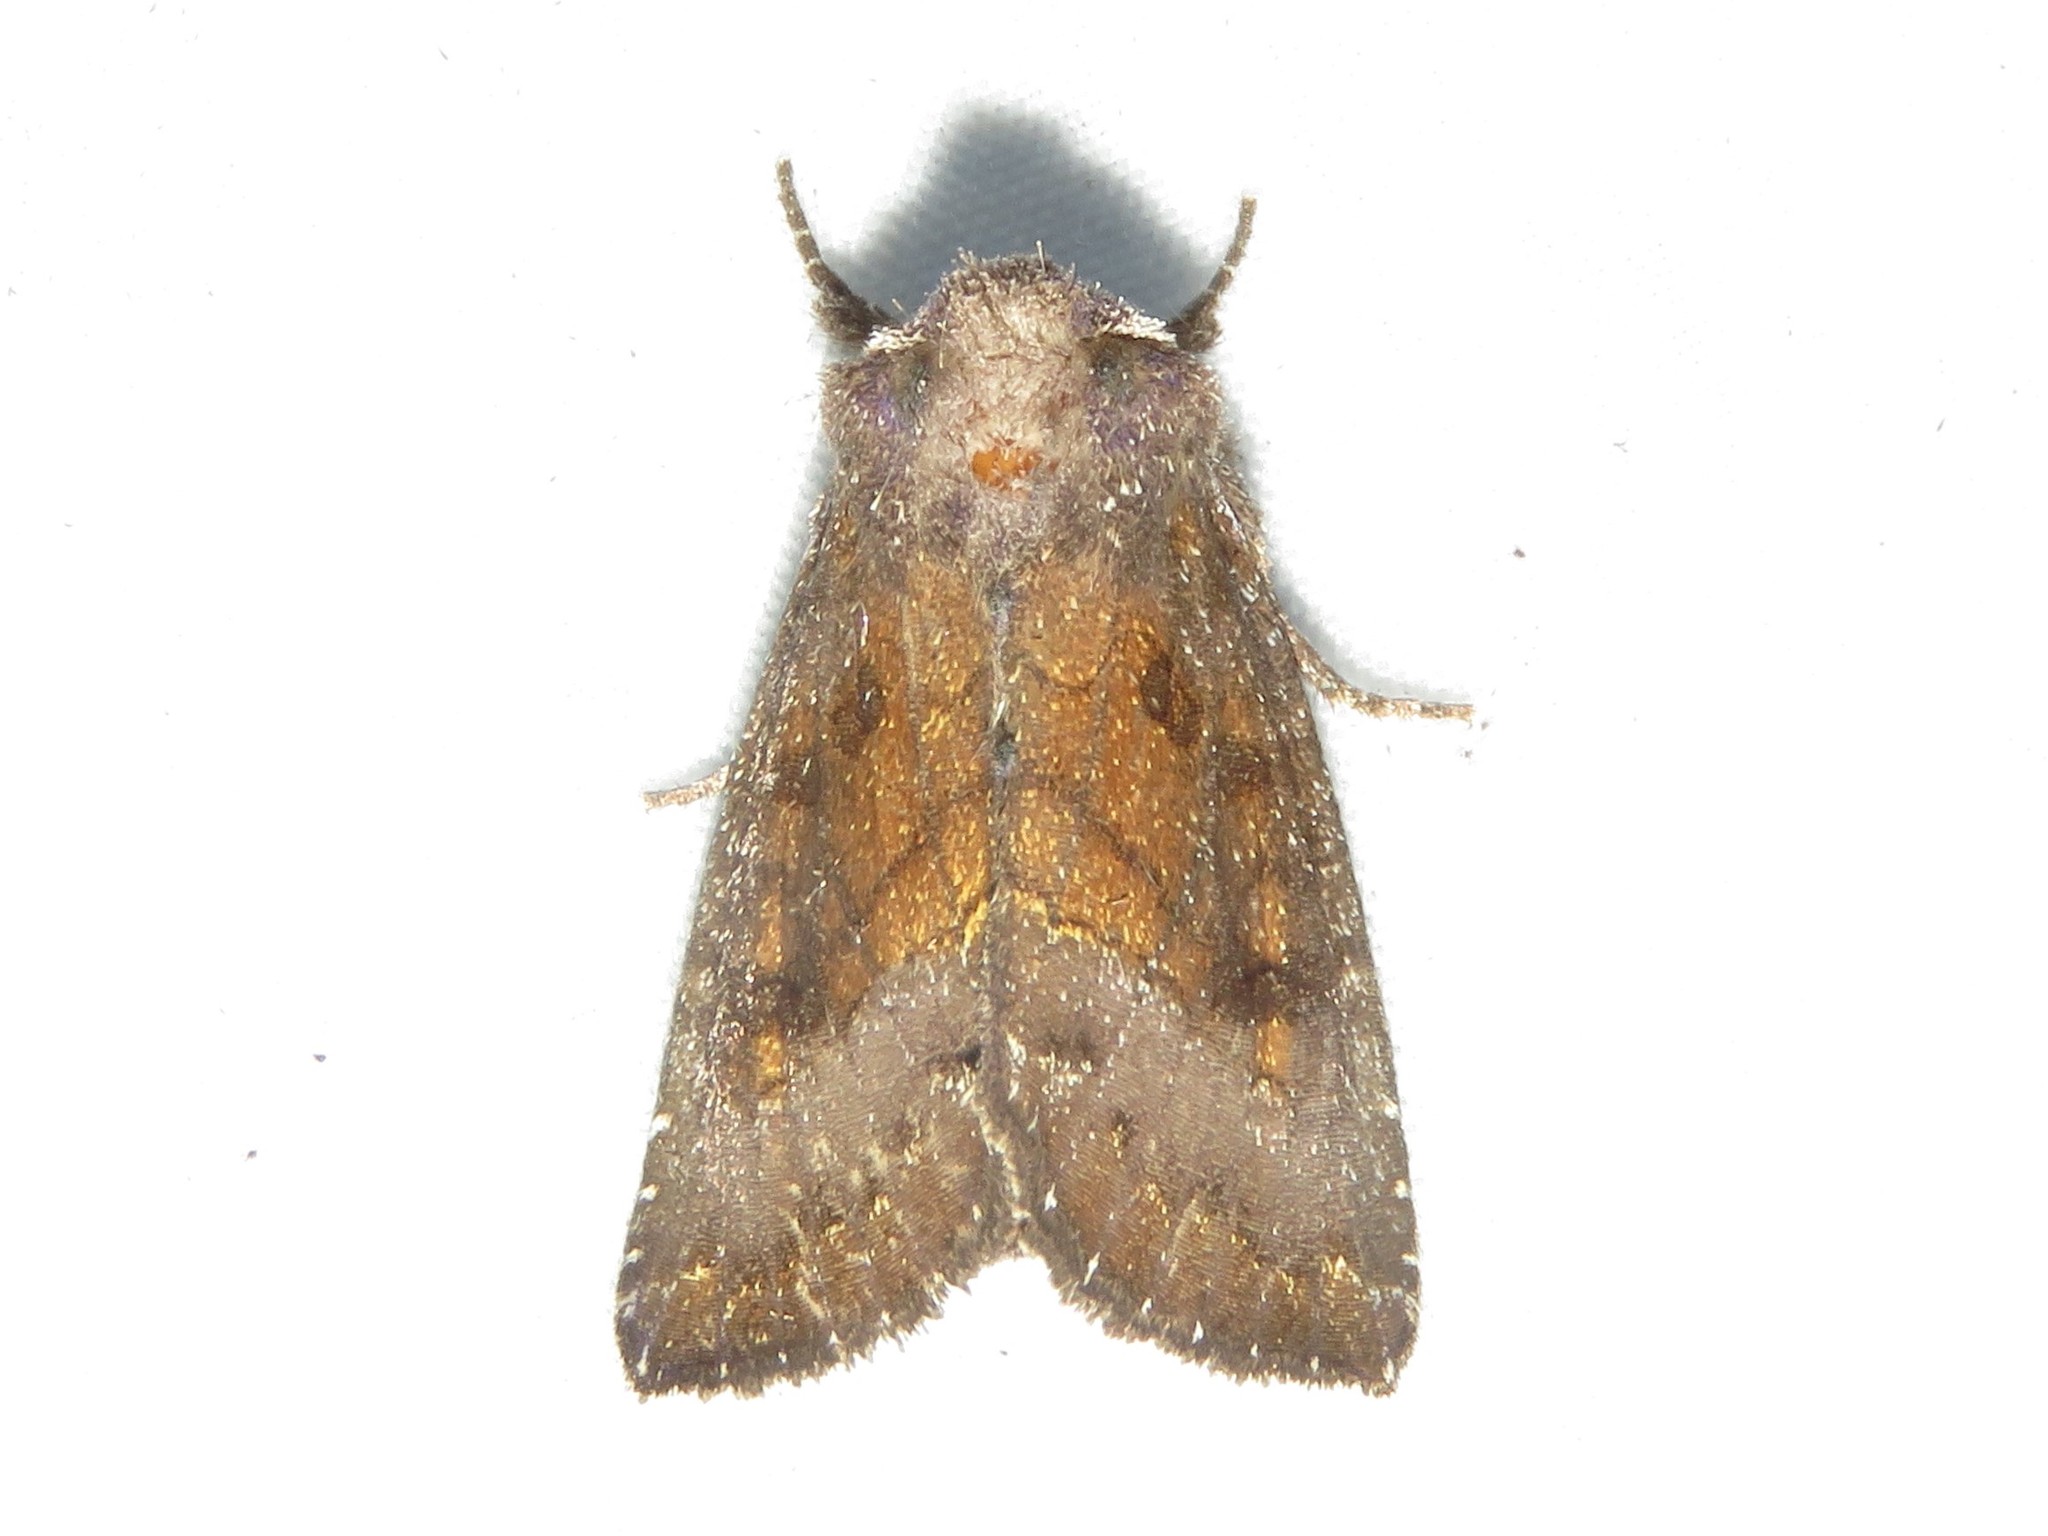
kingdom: Animalia
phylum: Arthropoda
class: Insecta
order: Lepidoptera
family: Noctuidae
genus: Papaipema
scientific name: Papaipema nelita
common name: Coneflower borer moth
